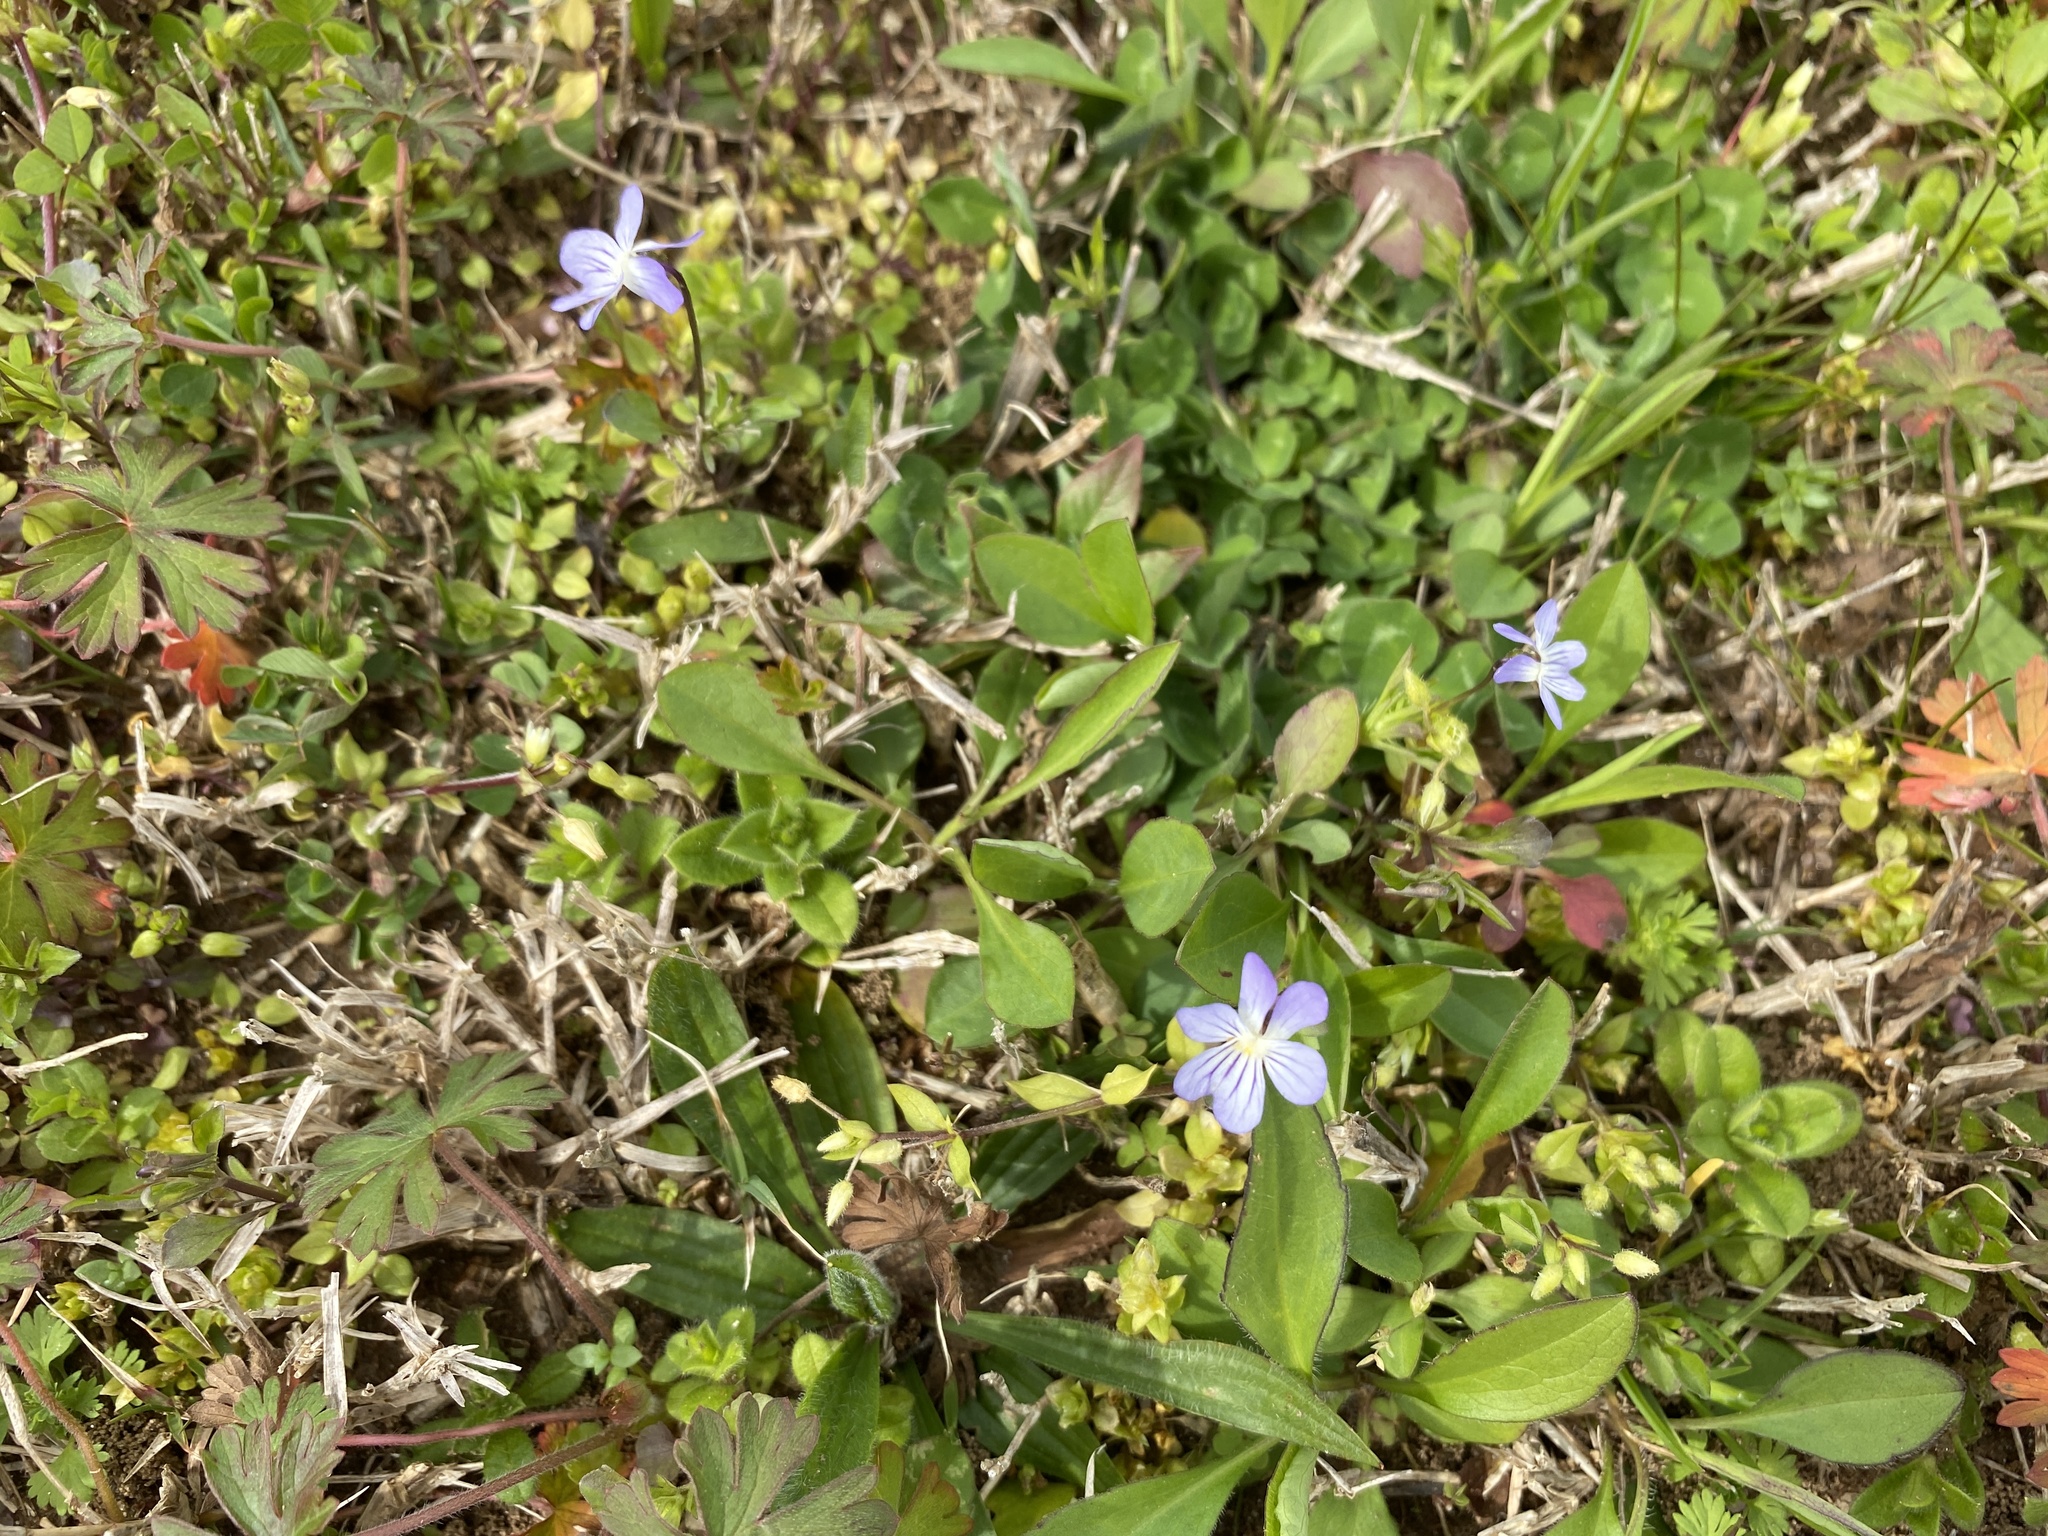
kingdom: Plantae
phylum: Tracheophyta
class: Magnoliopsida
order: Malpighiales
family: Violaceae
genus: Viola
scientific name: Viola rafinesquei
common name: American field pansy
